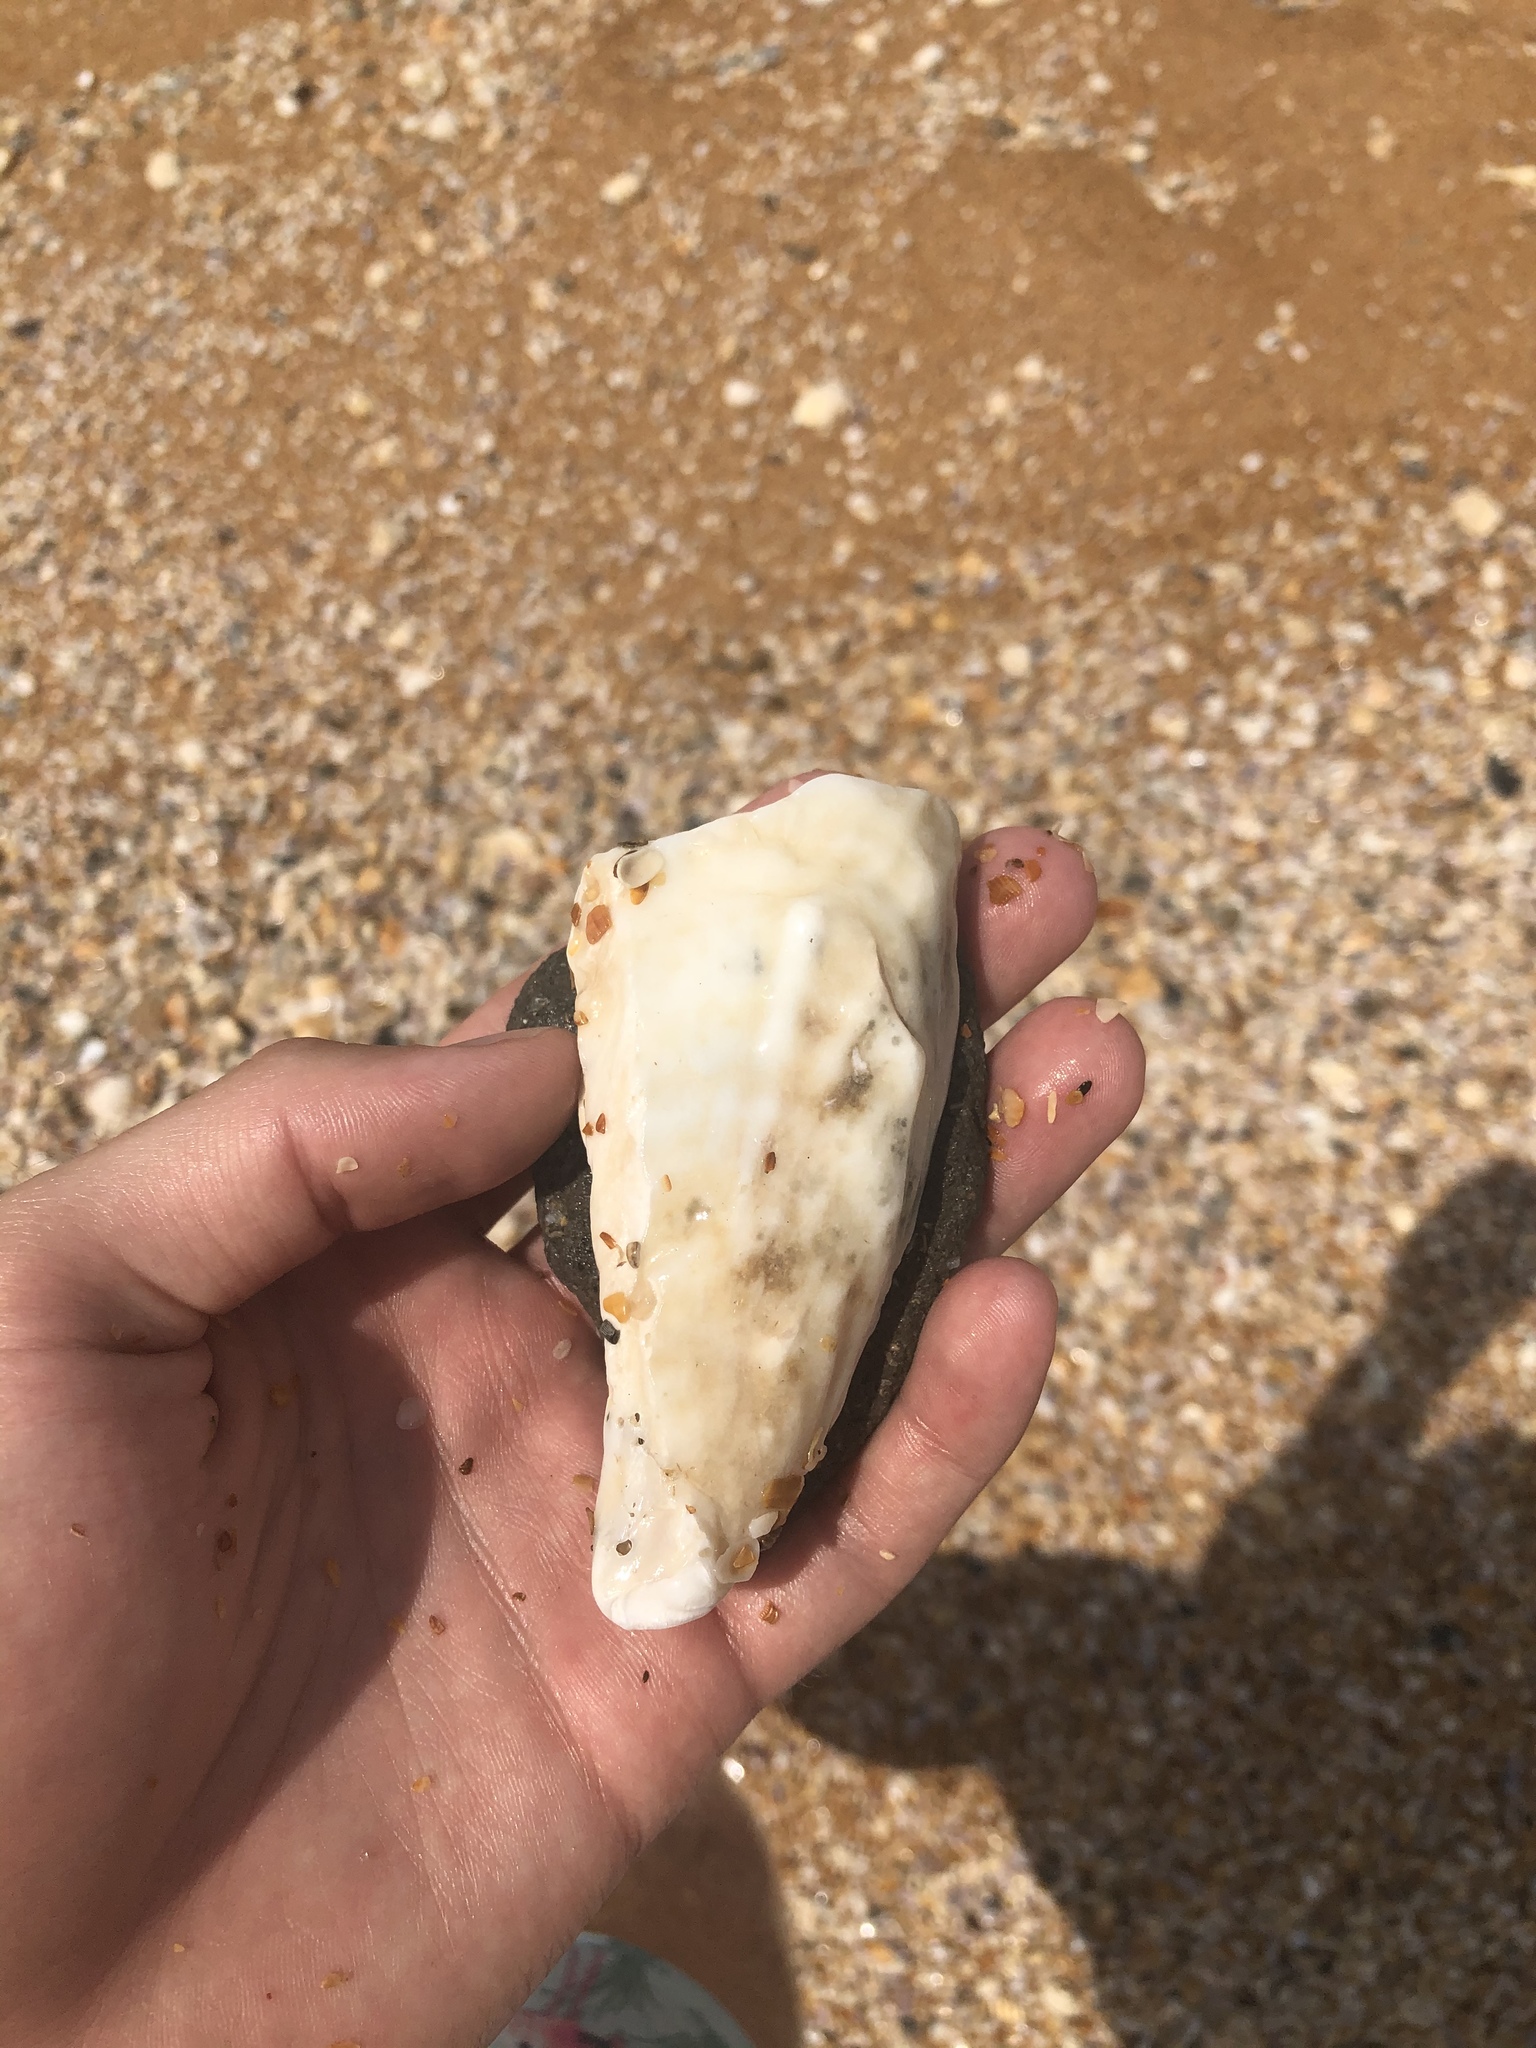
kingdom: Animalia
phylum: Mollusca
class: Bivalvia
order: Ostreida
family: Ostreidae
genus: Crassostrea
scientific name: Crassostrea virginica
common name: American oyster
